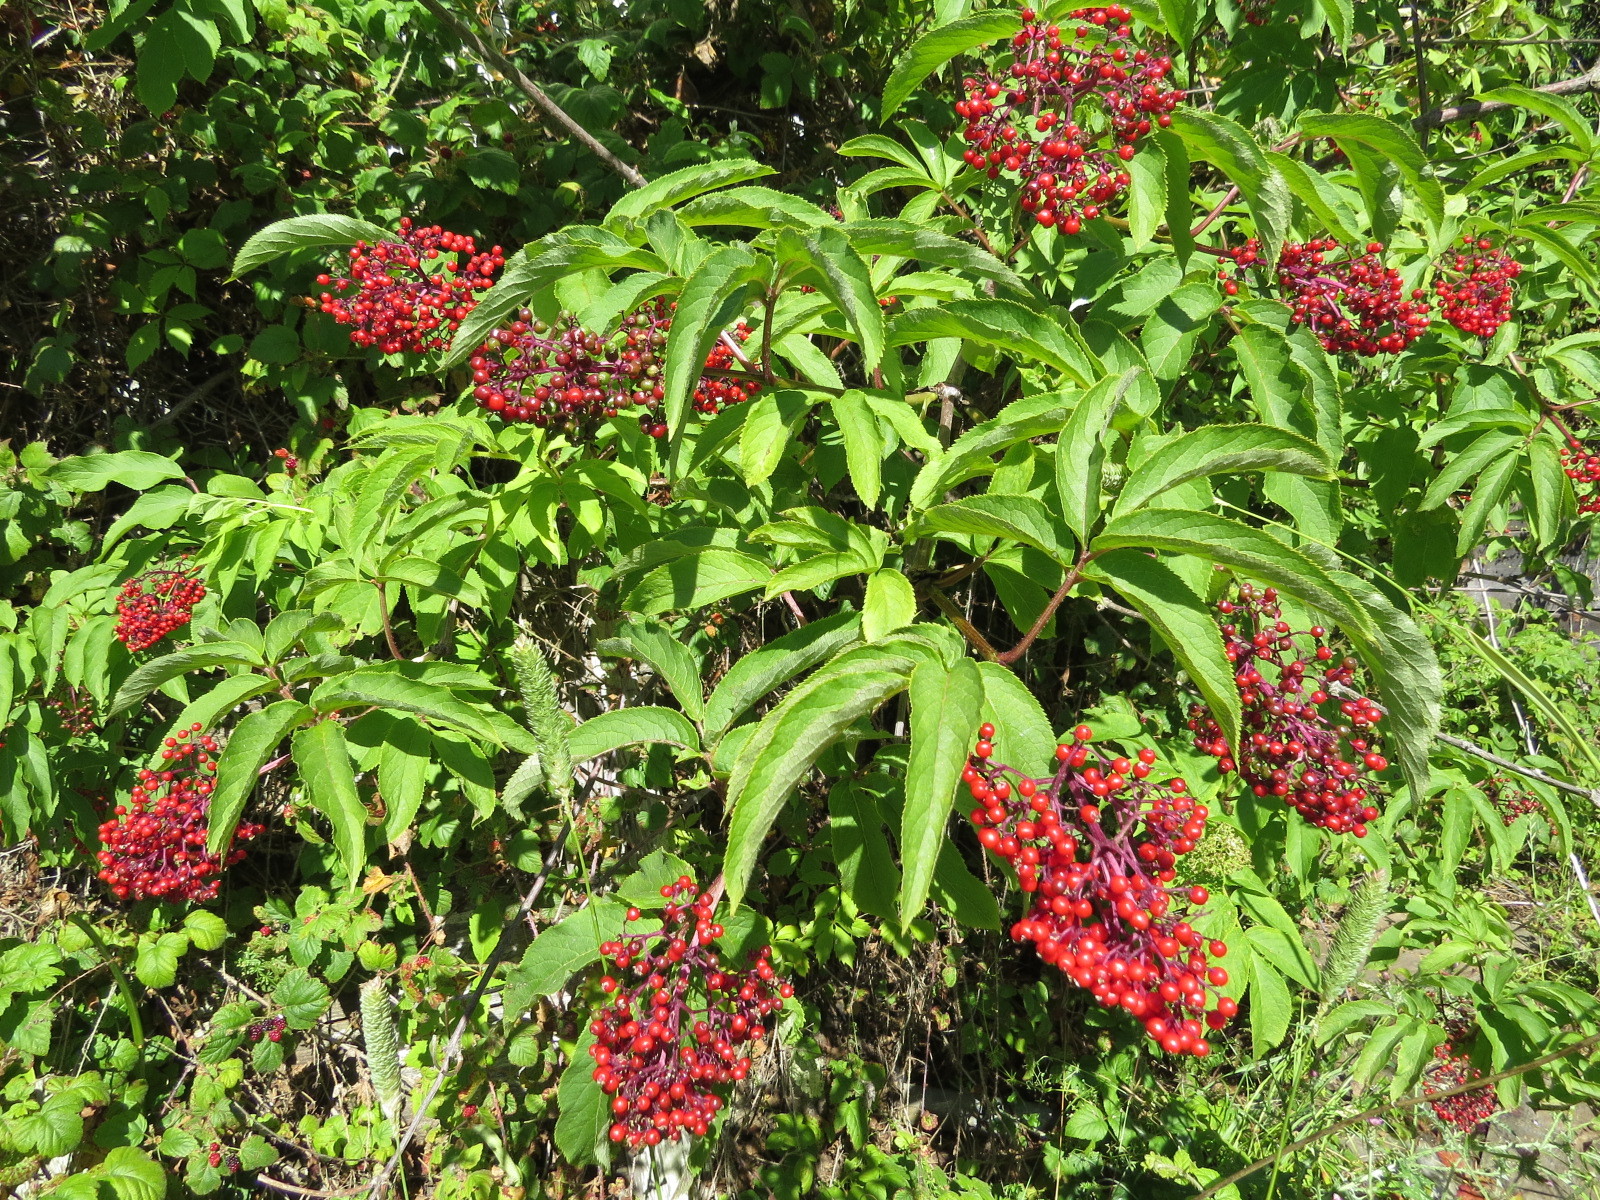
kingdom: Plantae
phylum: Tracheophyta
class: Magnoliopsida
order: Dipsacales
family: Viburnaceae
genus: Sambucus
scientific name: Sambucus racemosa
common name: Red-berried elder
